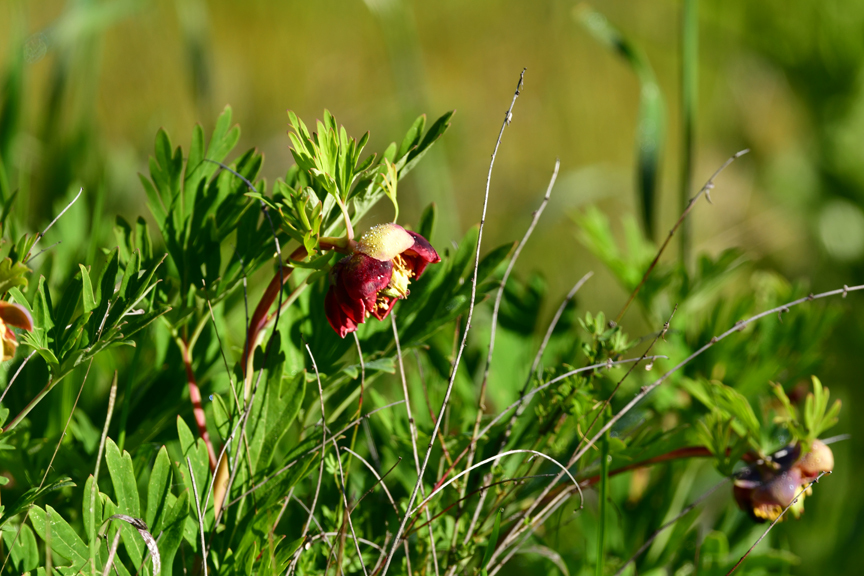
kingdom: Plantae
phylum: Tracheophyta
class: Magnoliopsida
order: Saxifragales
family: Paeoniaceae
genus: Paeonia
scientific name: Paeonia californica
